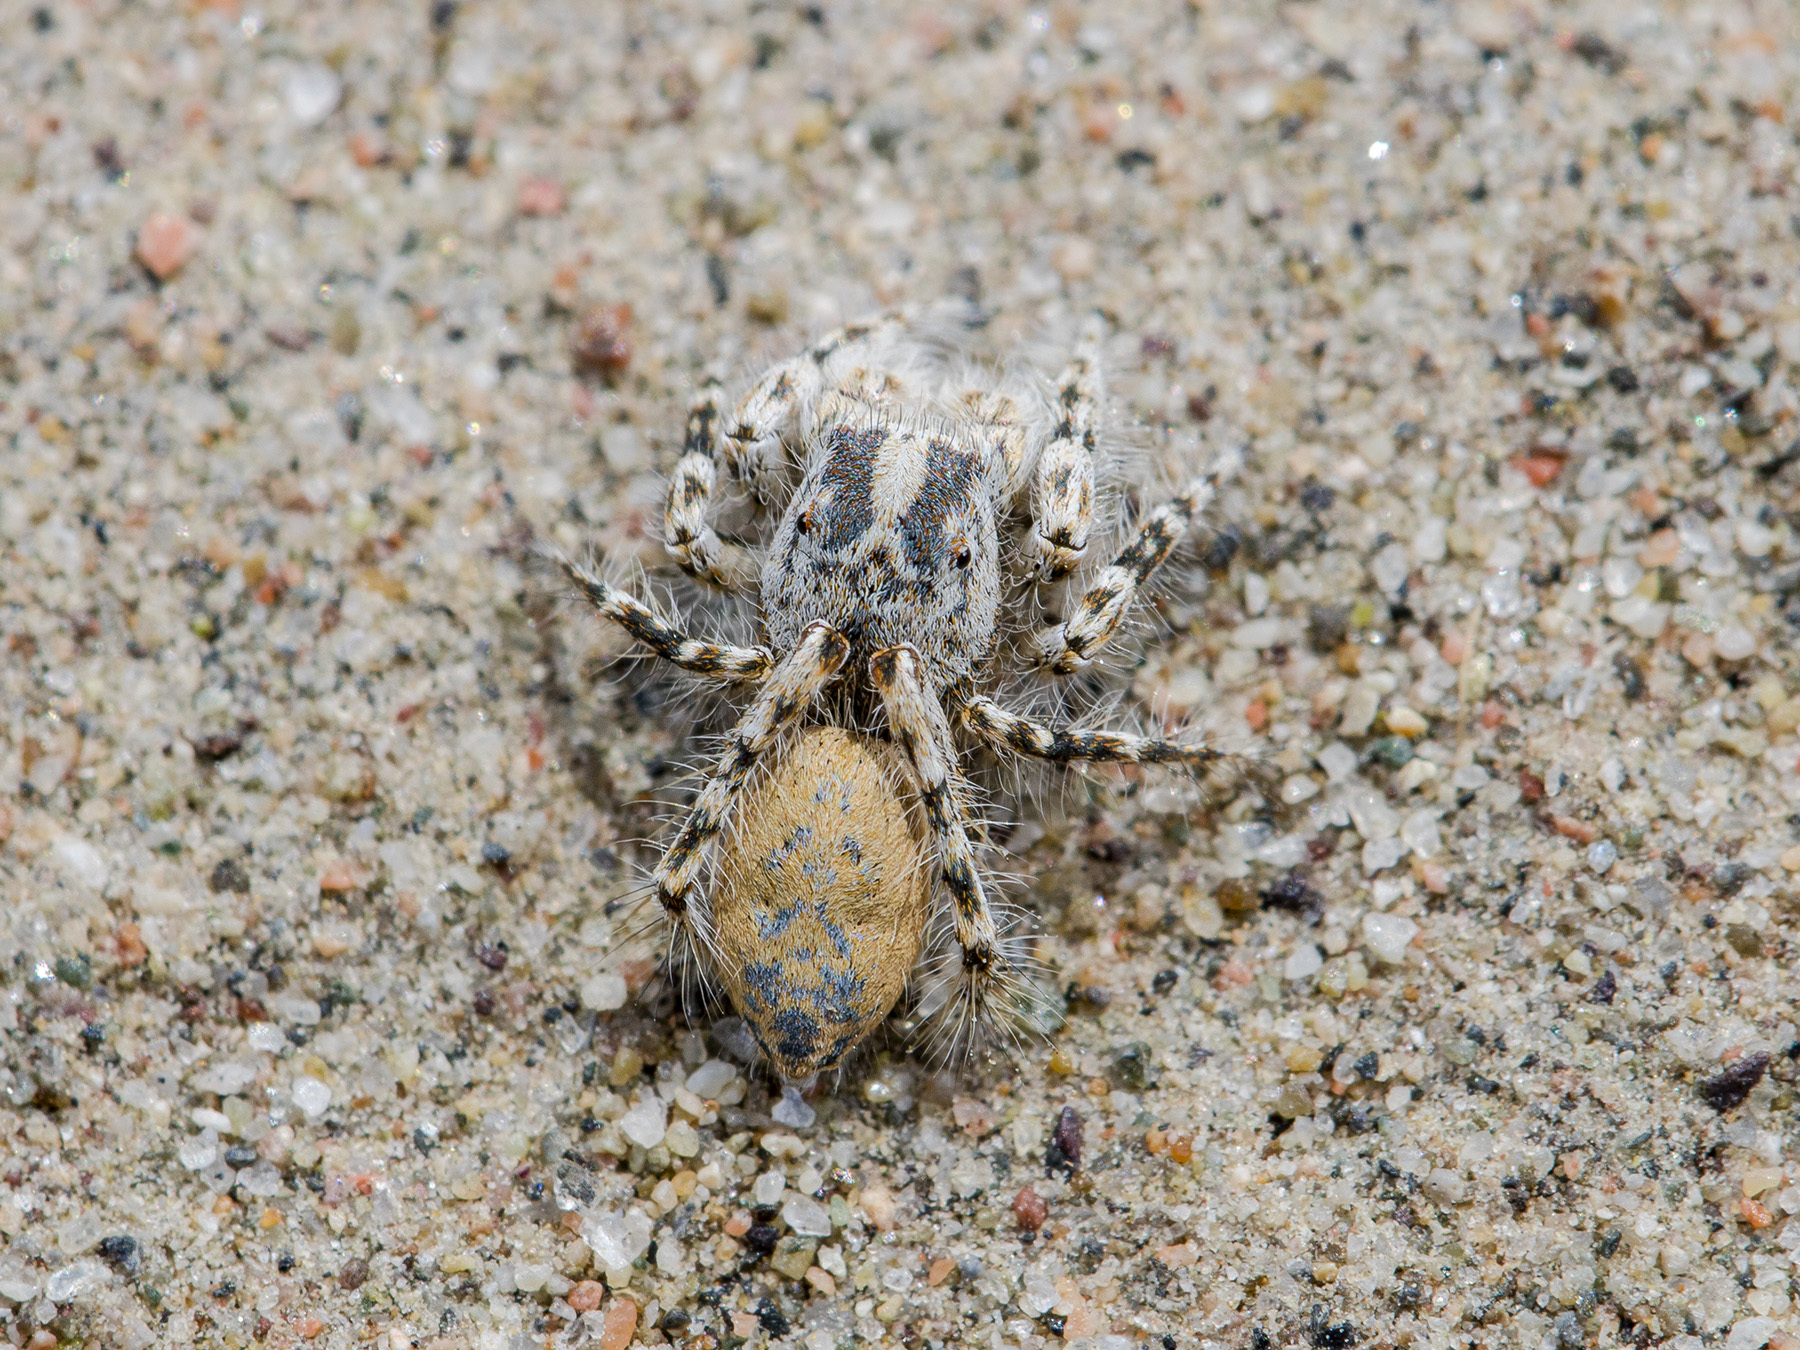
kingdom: Animalia
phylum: Arthropoda
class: Arachnida
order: Araneae
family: Salticidae
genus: Yllenus
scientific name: Yllenus turkestanicus
